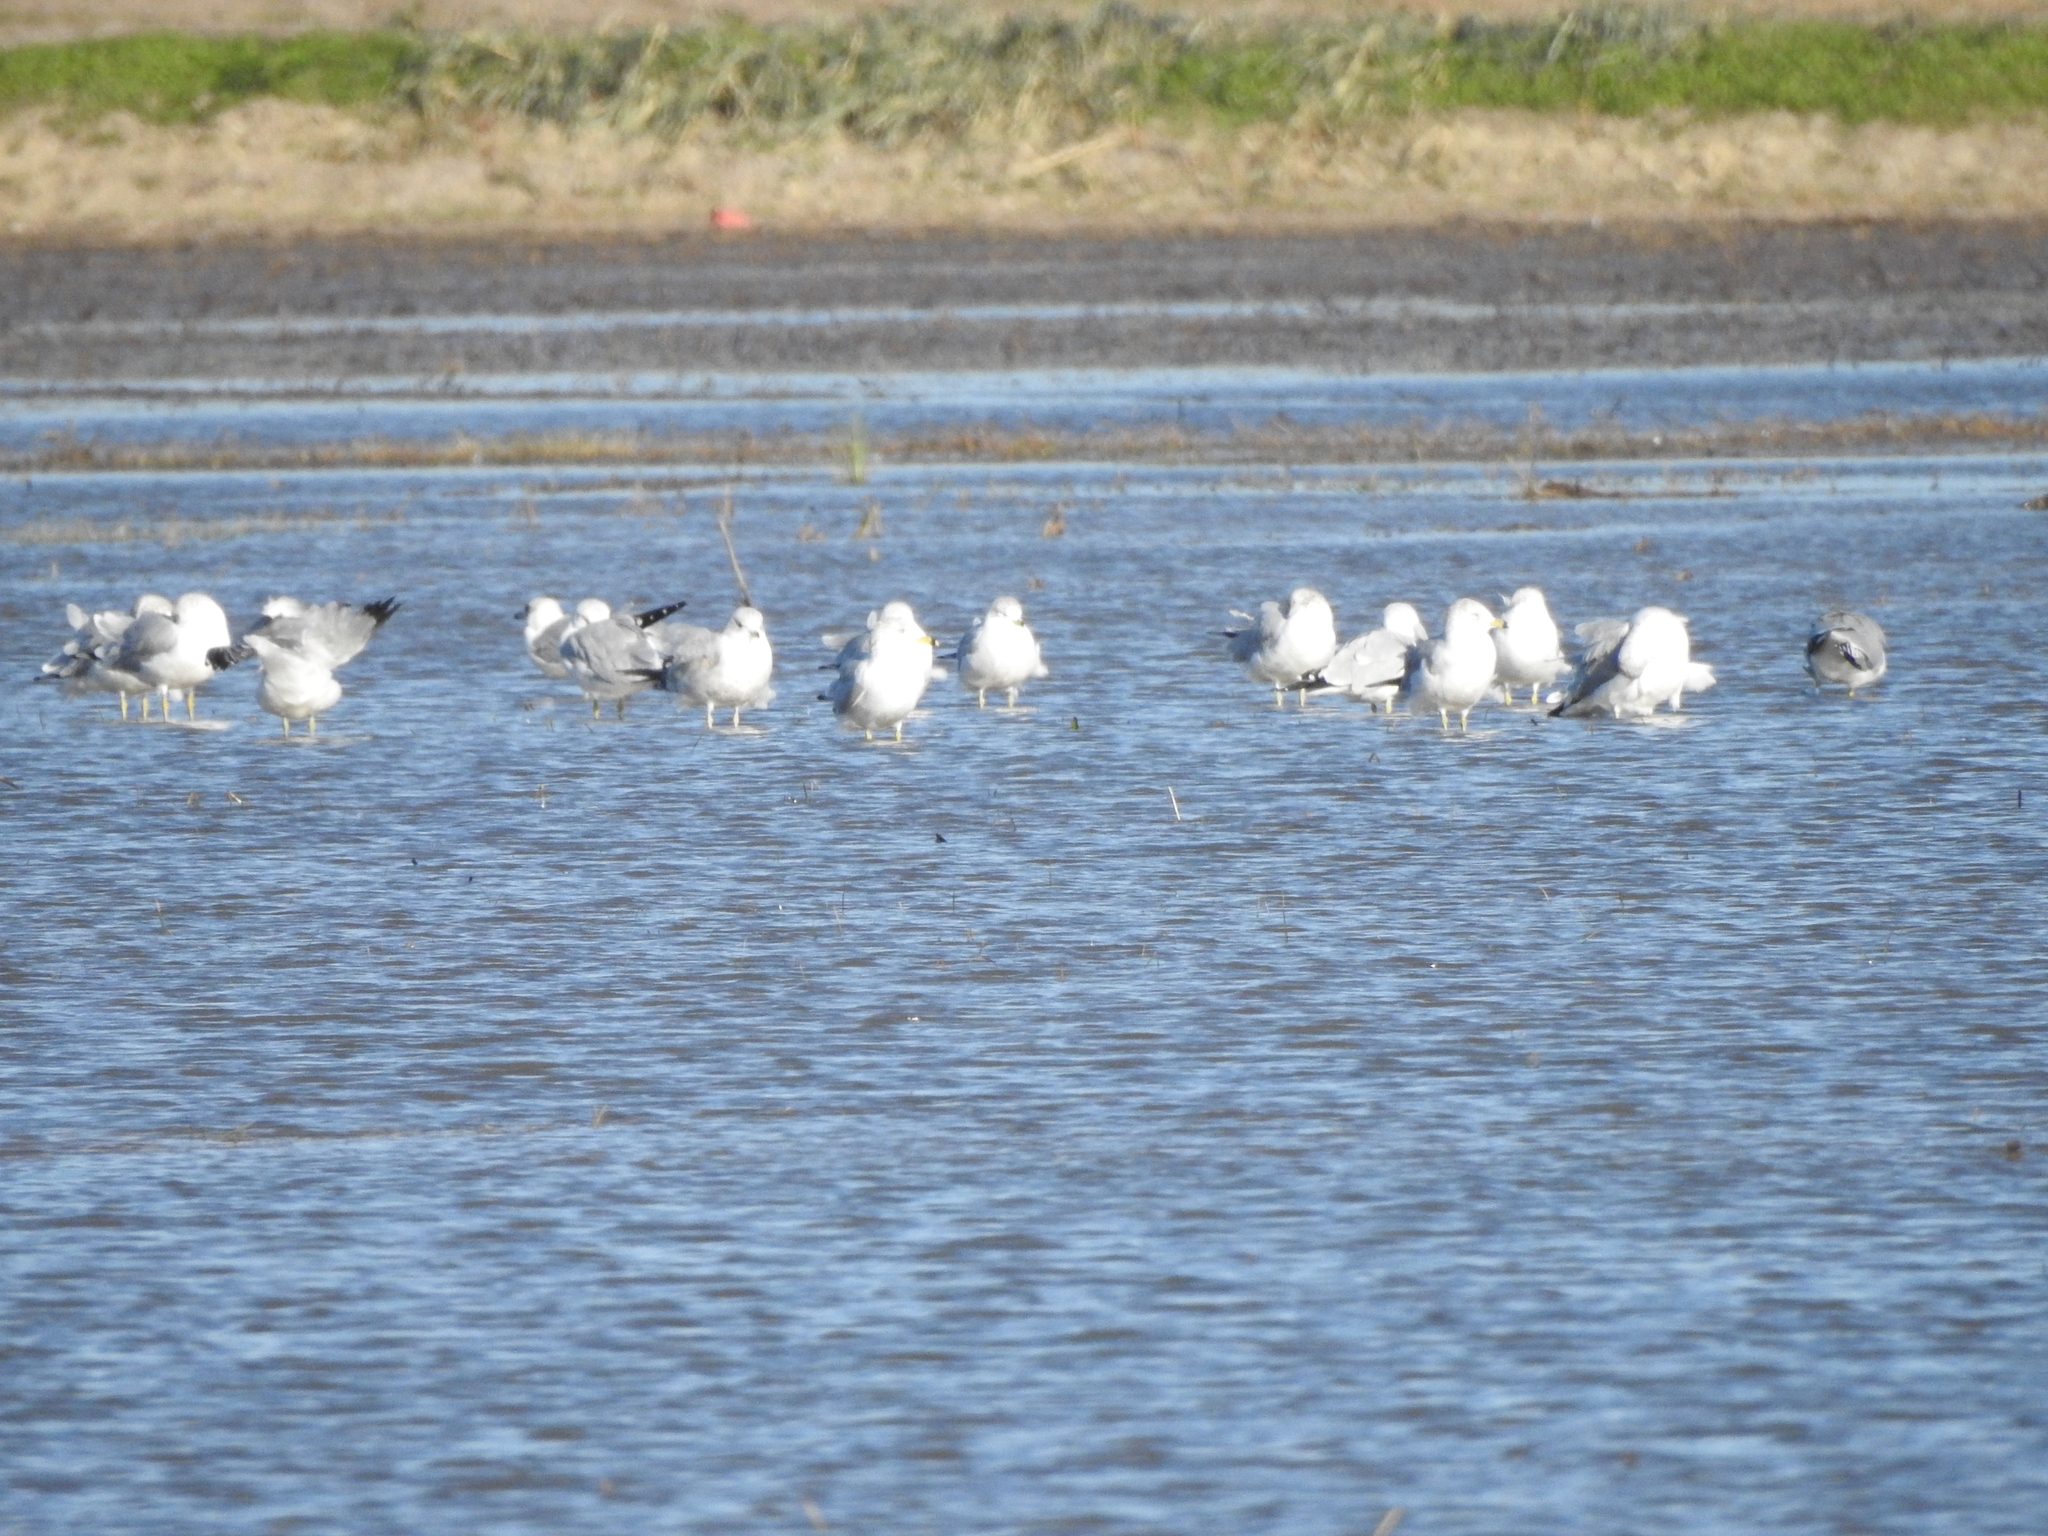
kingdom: Animalia
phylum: Chordata
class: Aves
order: Charadriiformes
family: Laridae
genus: Larus
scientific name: Larus delawarensis
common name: Ring-billed gull
